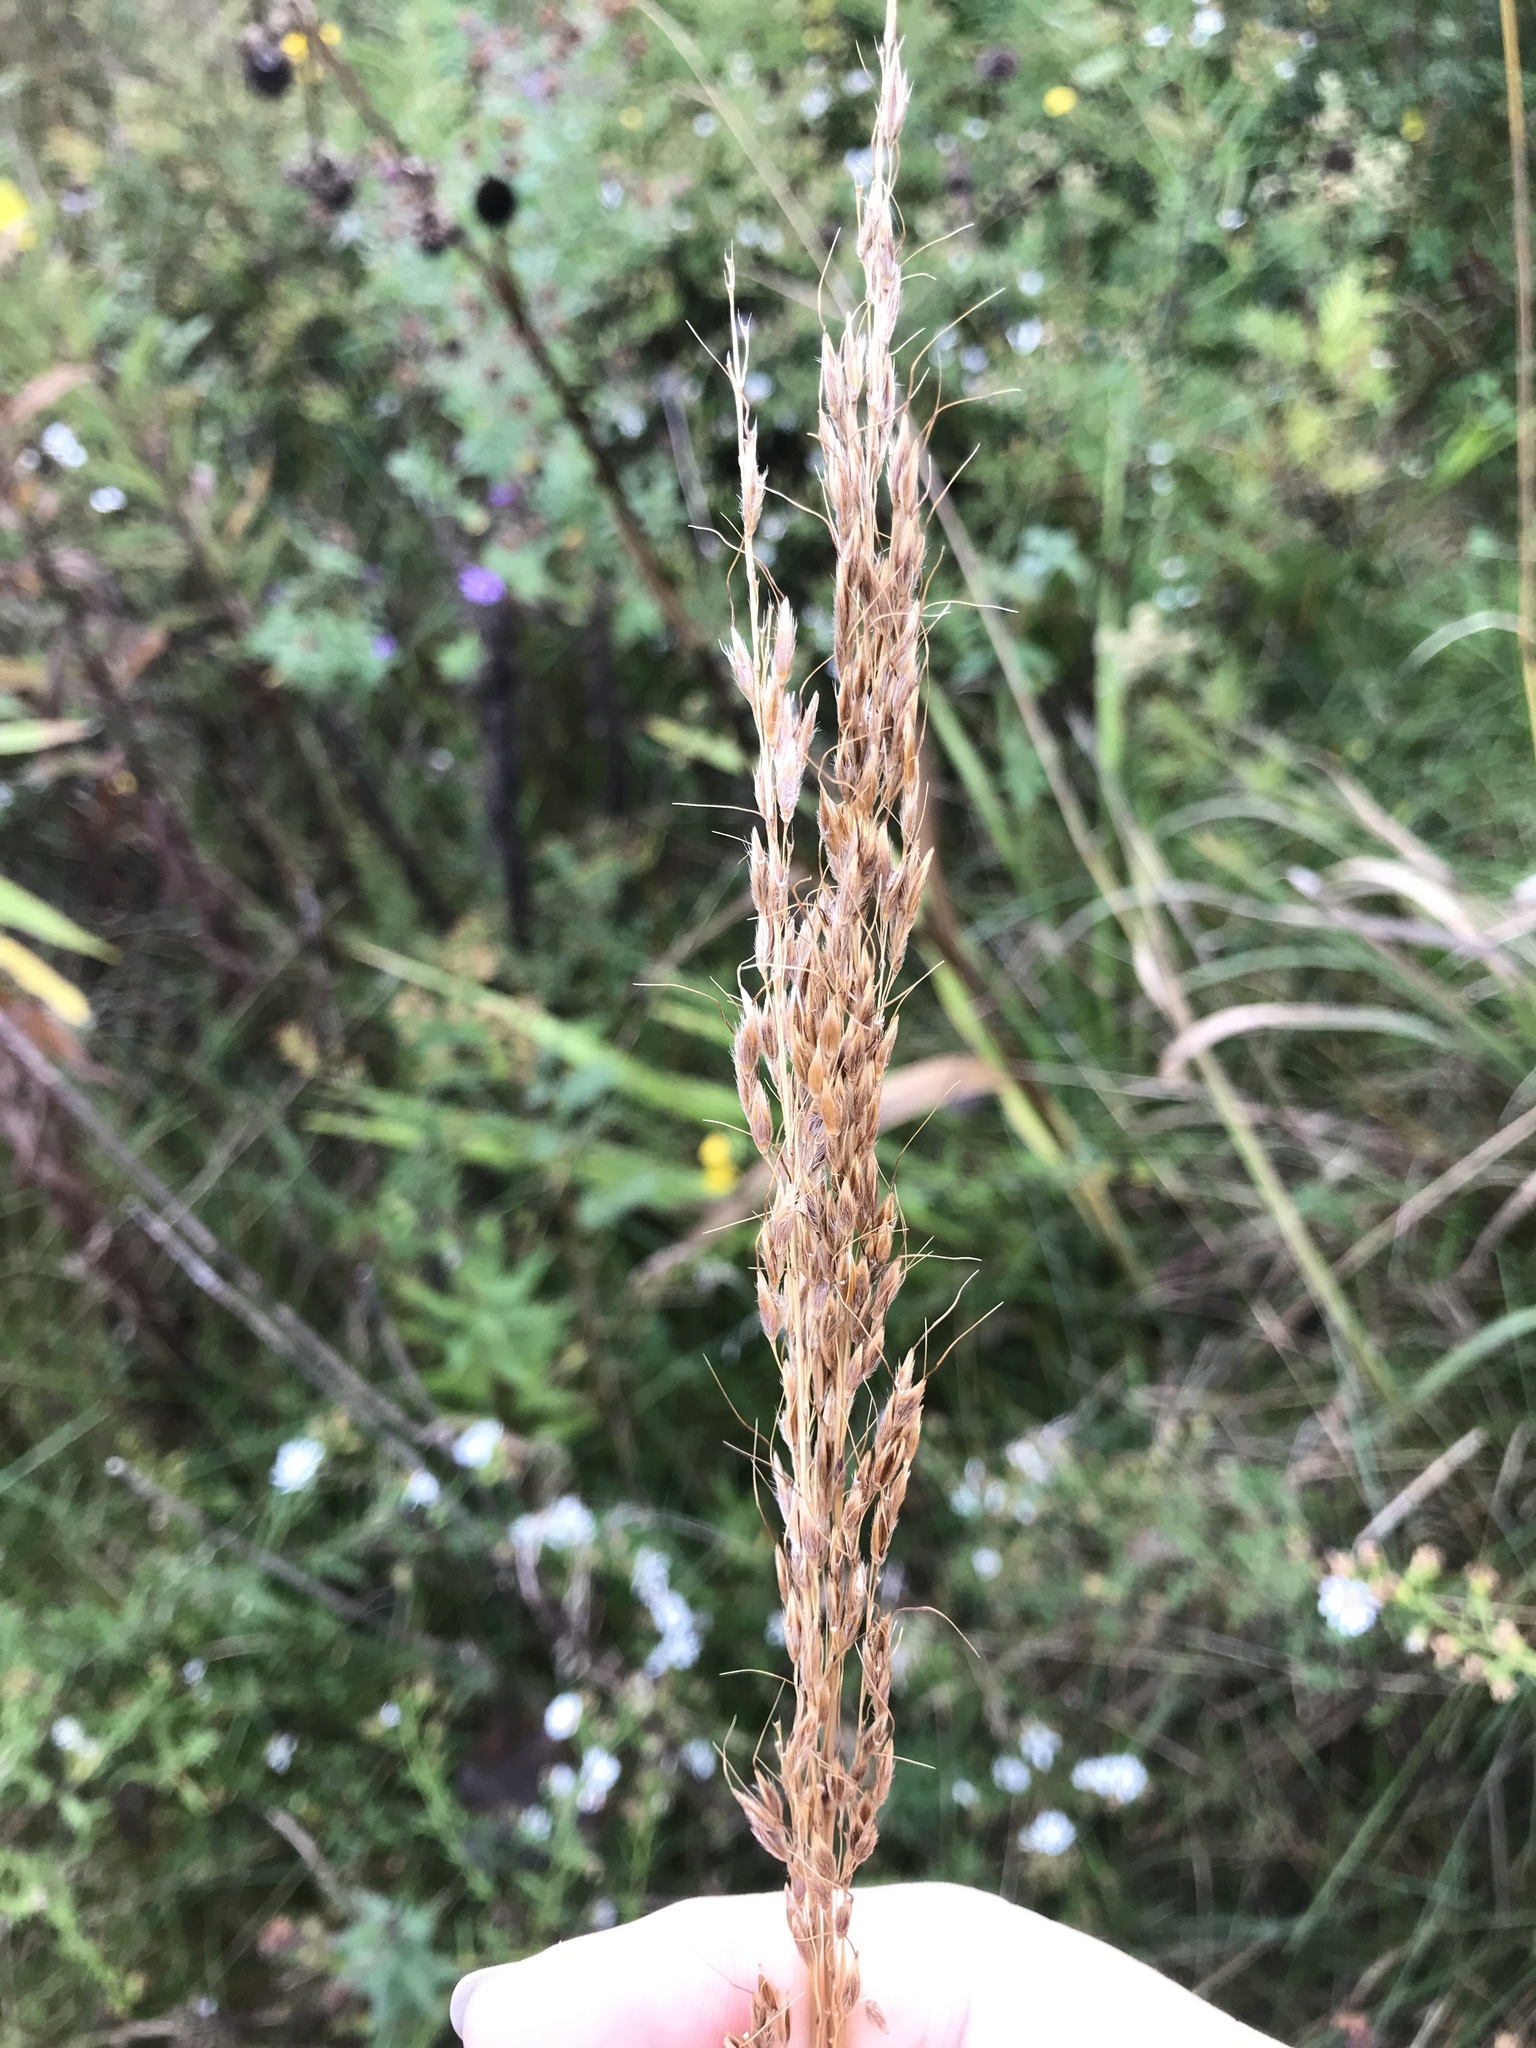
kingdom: Plantae
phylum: Tracheophyta
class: Liliopsida
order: Poales
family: Poaceae
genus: Sorghastrum
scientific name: Sorghastrum nutans
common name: Indian grass
